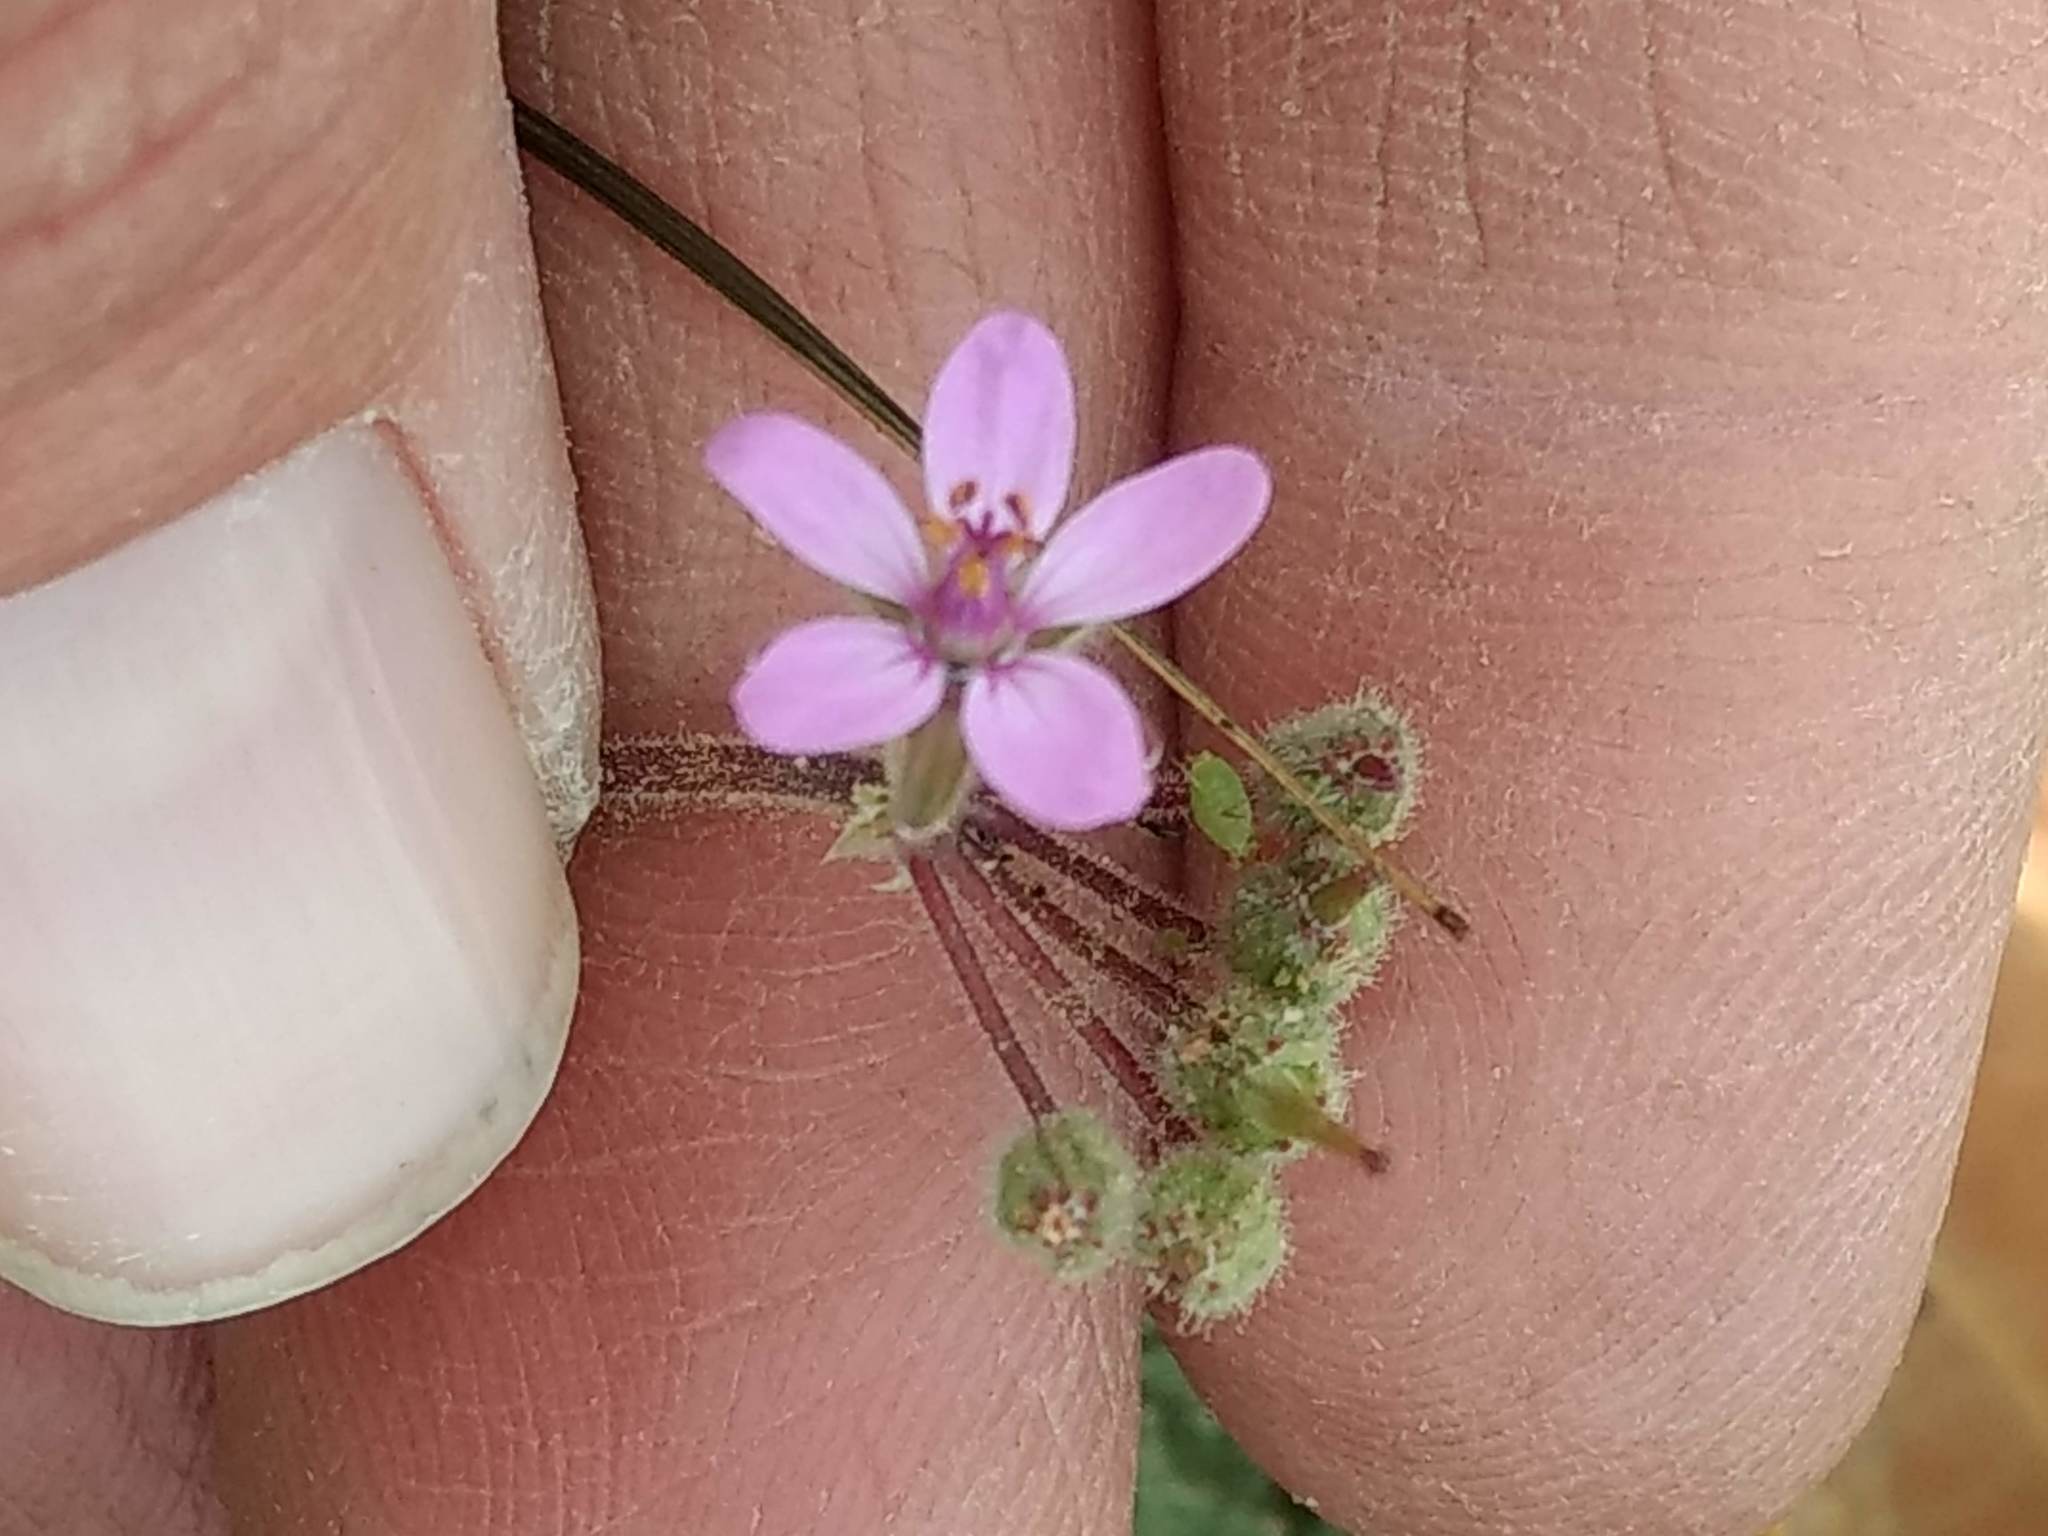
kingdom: Plantae
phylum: Tracheophyta
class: Magnoliopsida
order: Geraniales
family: Geraniaceae
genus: Erodium
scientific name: Erodium cicutarium
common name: Common stork's-bill
